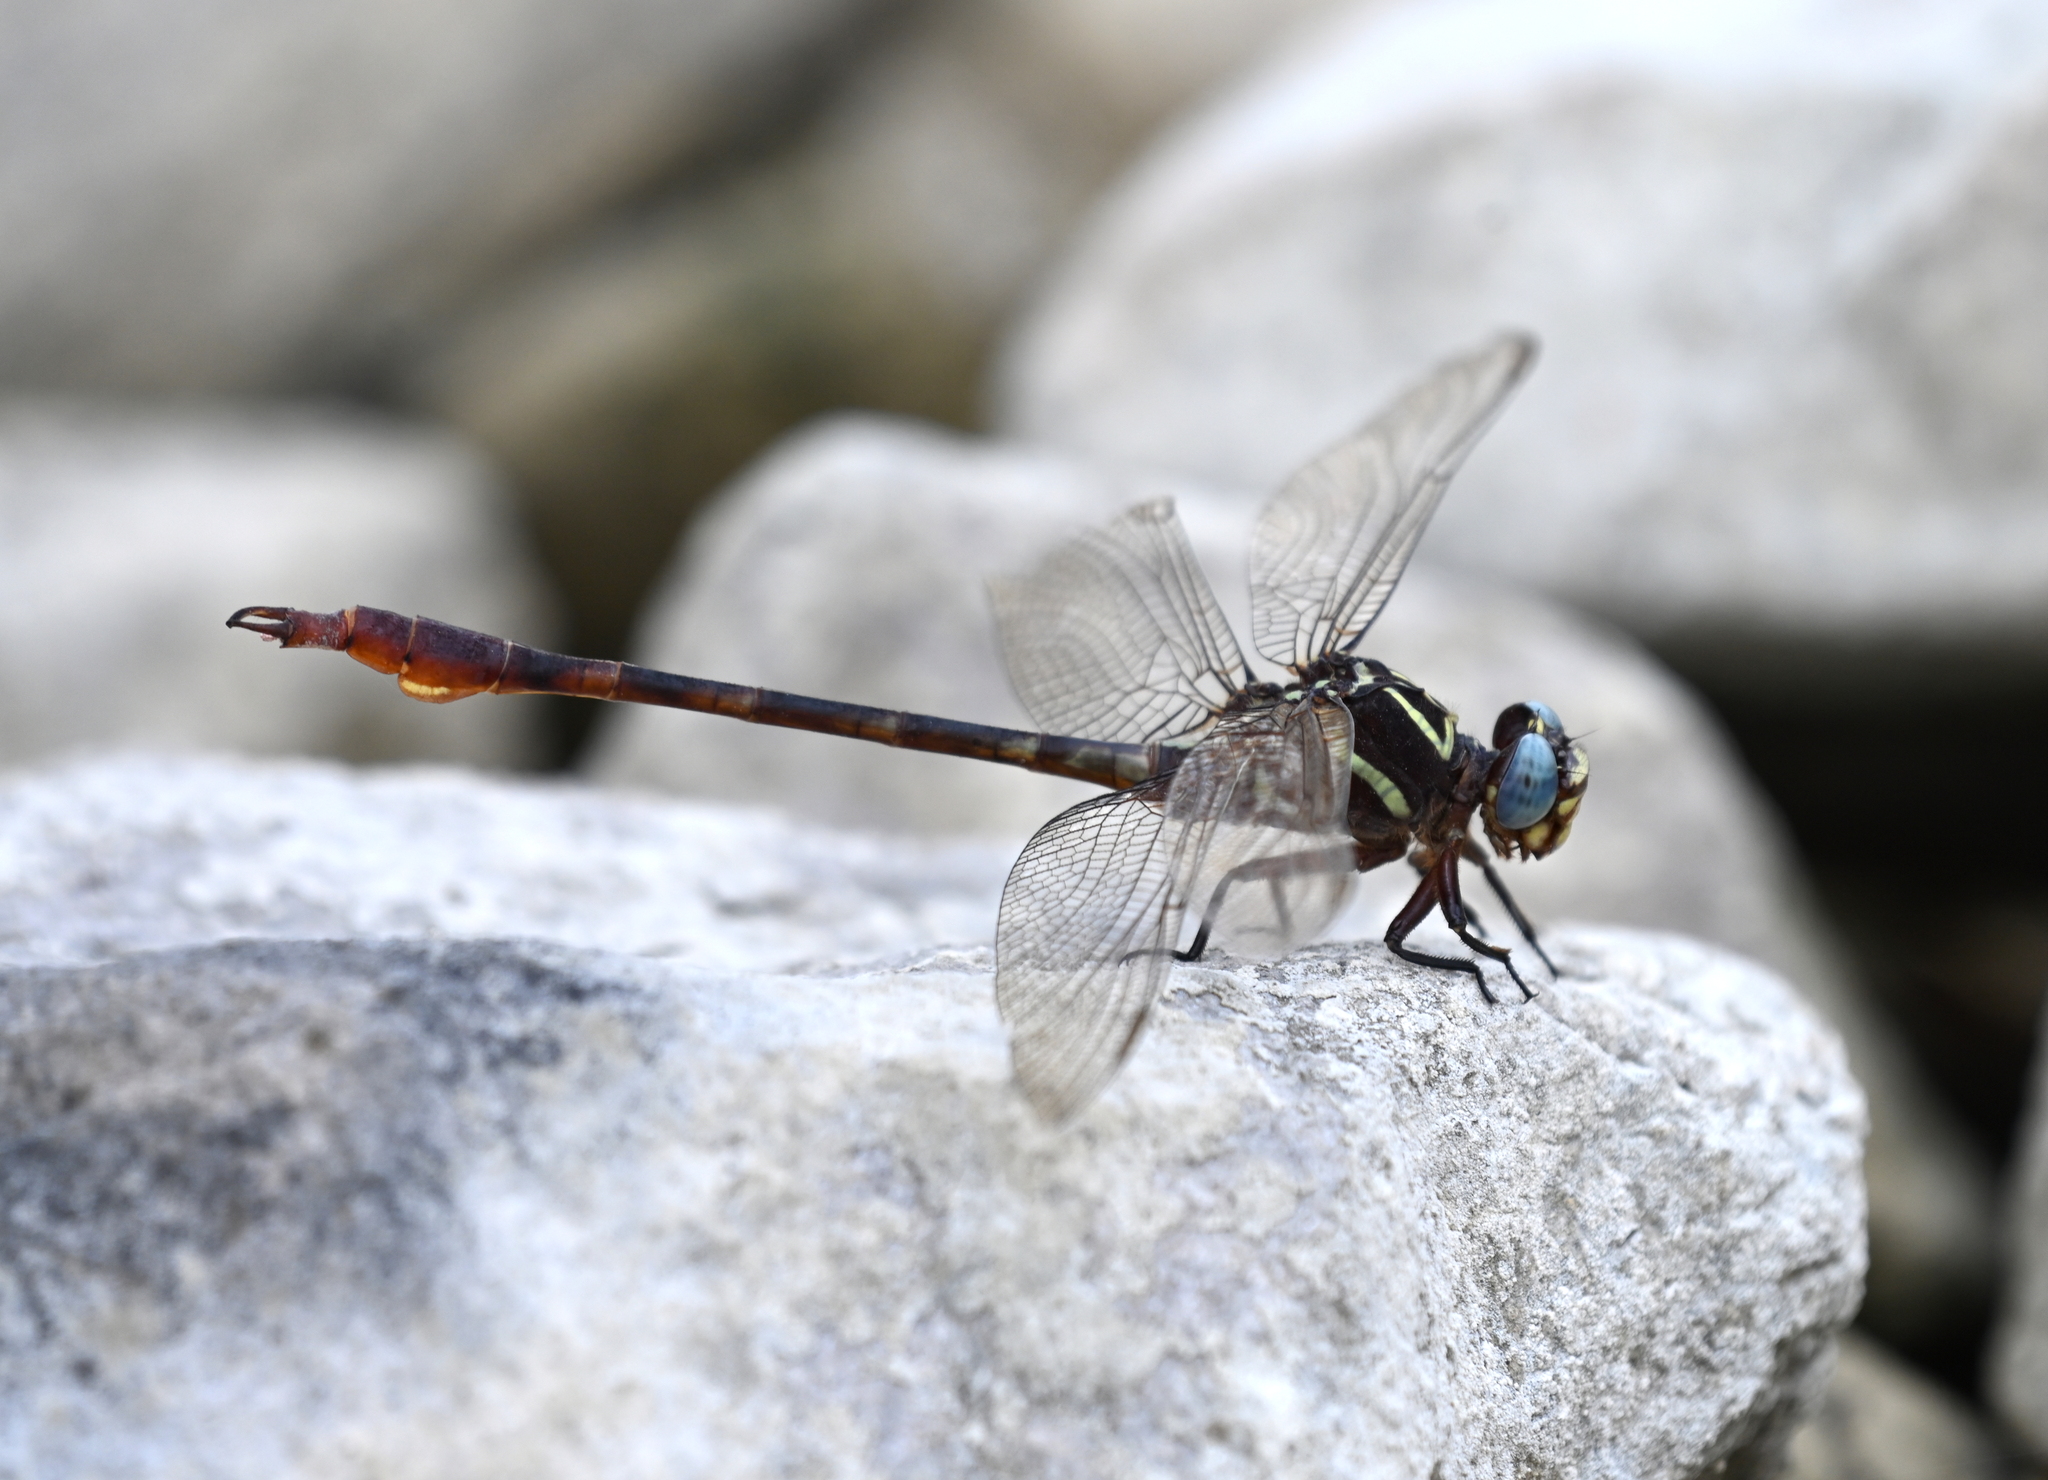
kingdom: Animalia
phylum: Arthropoda
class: Insecta
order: Odonata
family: Gomphidae
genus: Aphylla
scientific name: Aphylla williamsoni
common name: Two-striped forceptail
